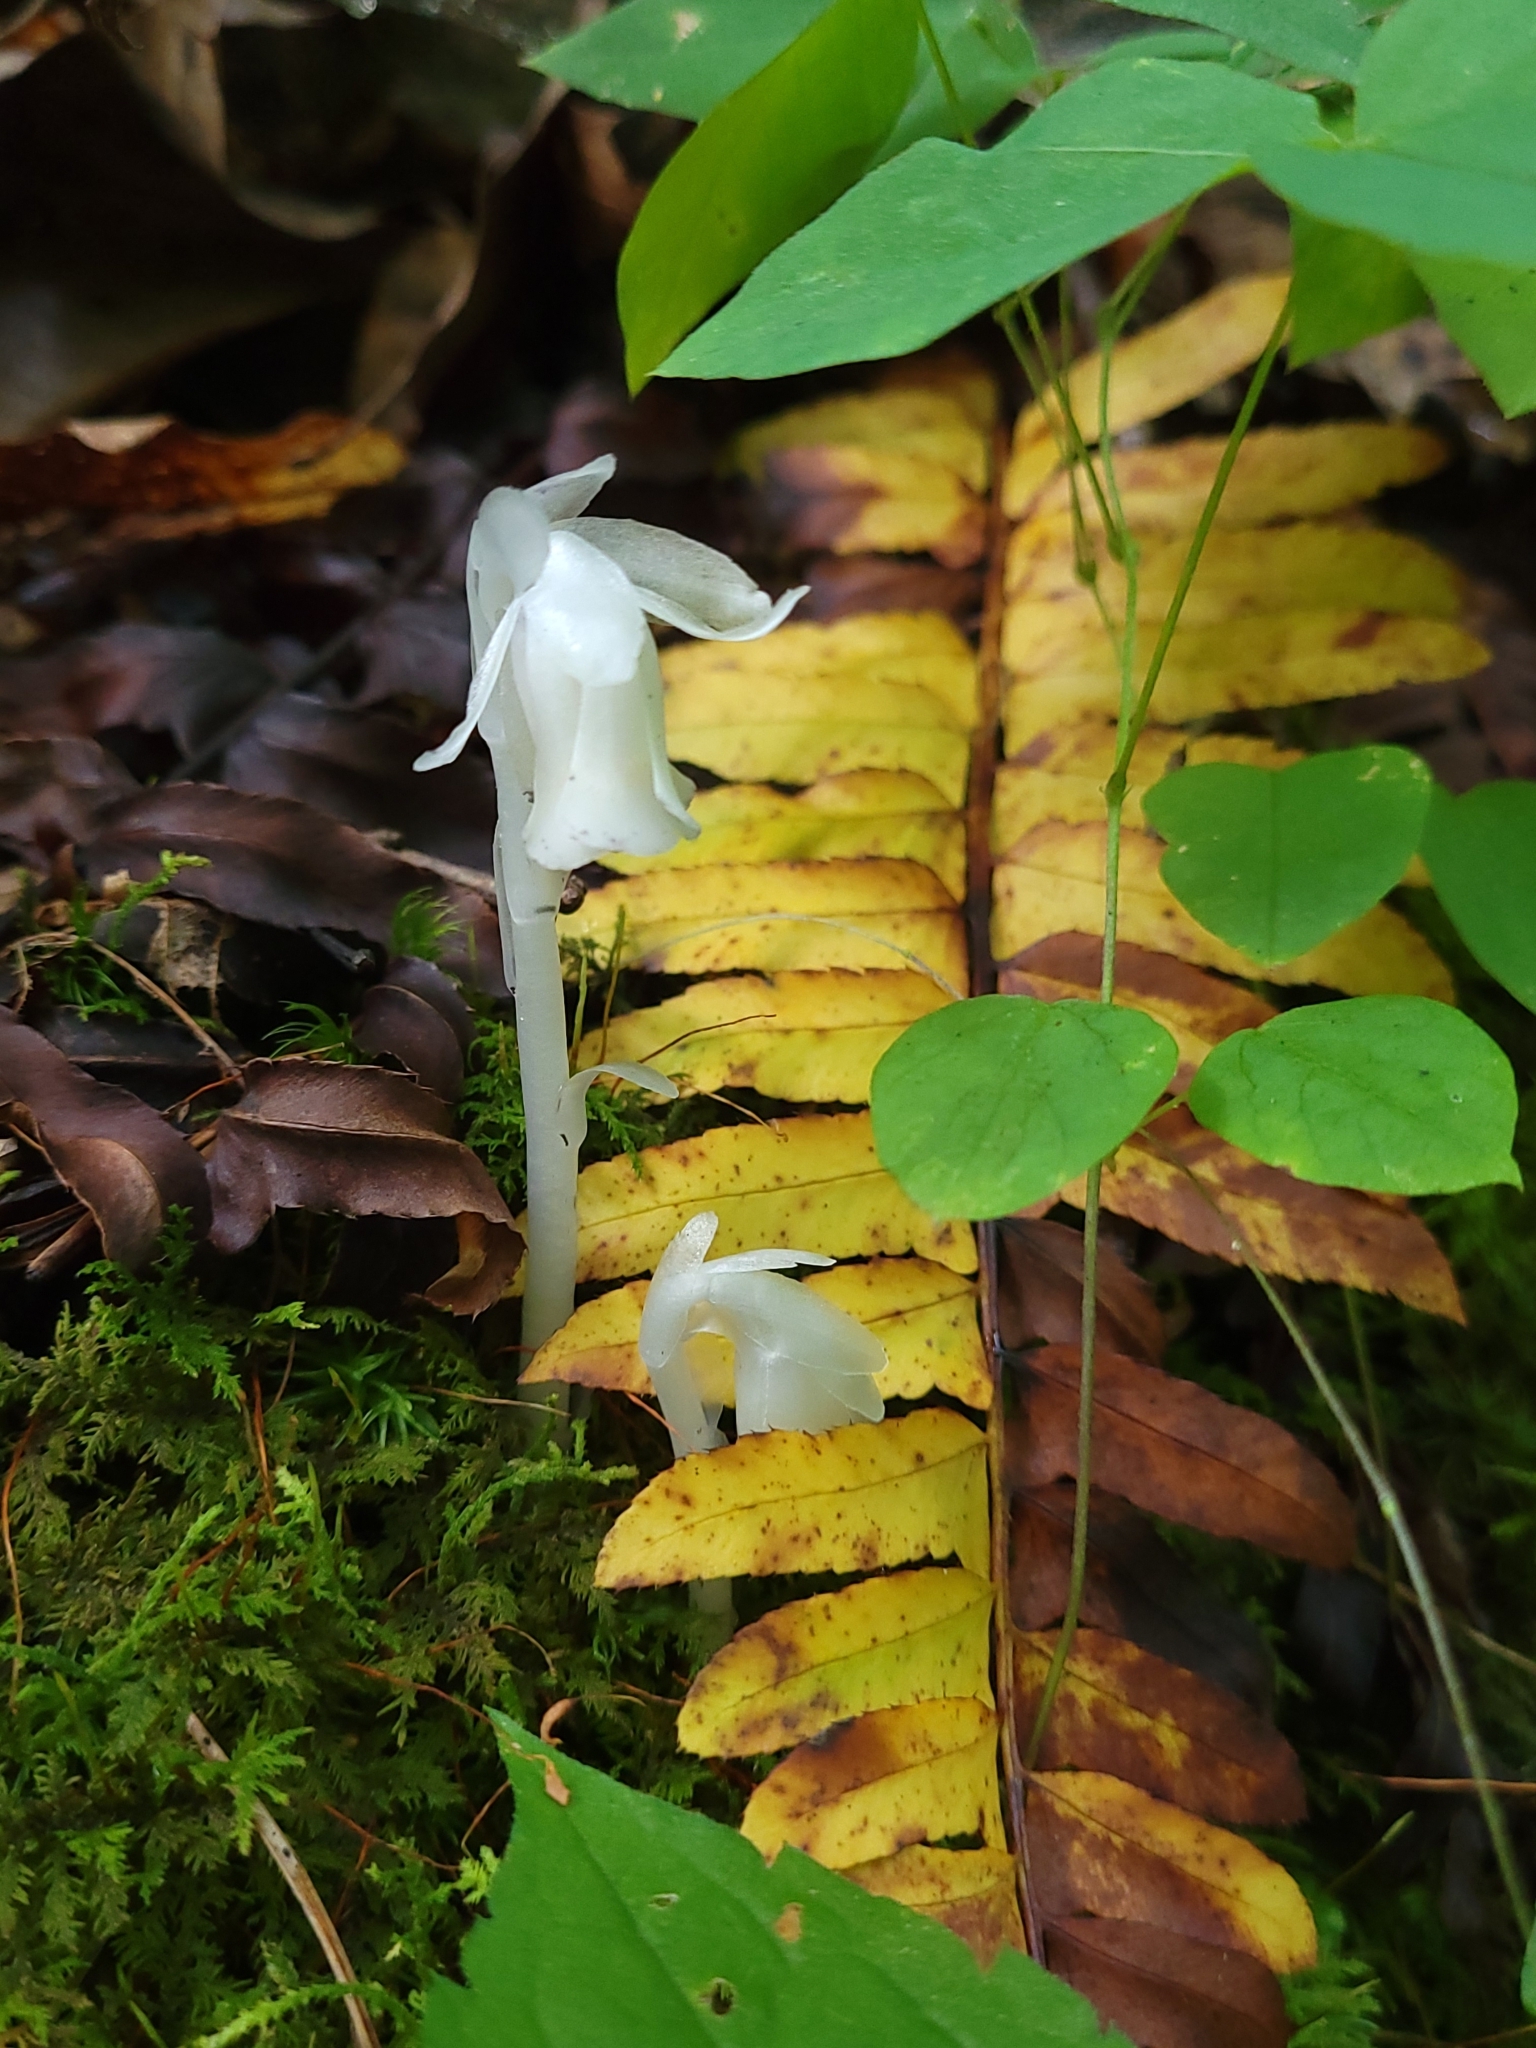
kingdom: Plantae
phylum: Tracheophyta
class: Magnoliopsida
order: Ericales
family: Ericaceae
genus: Monotropa
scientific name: Monotropa uniflora
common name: Convulsion root
